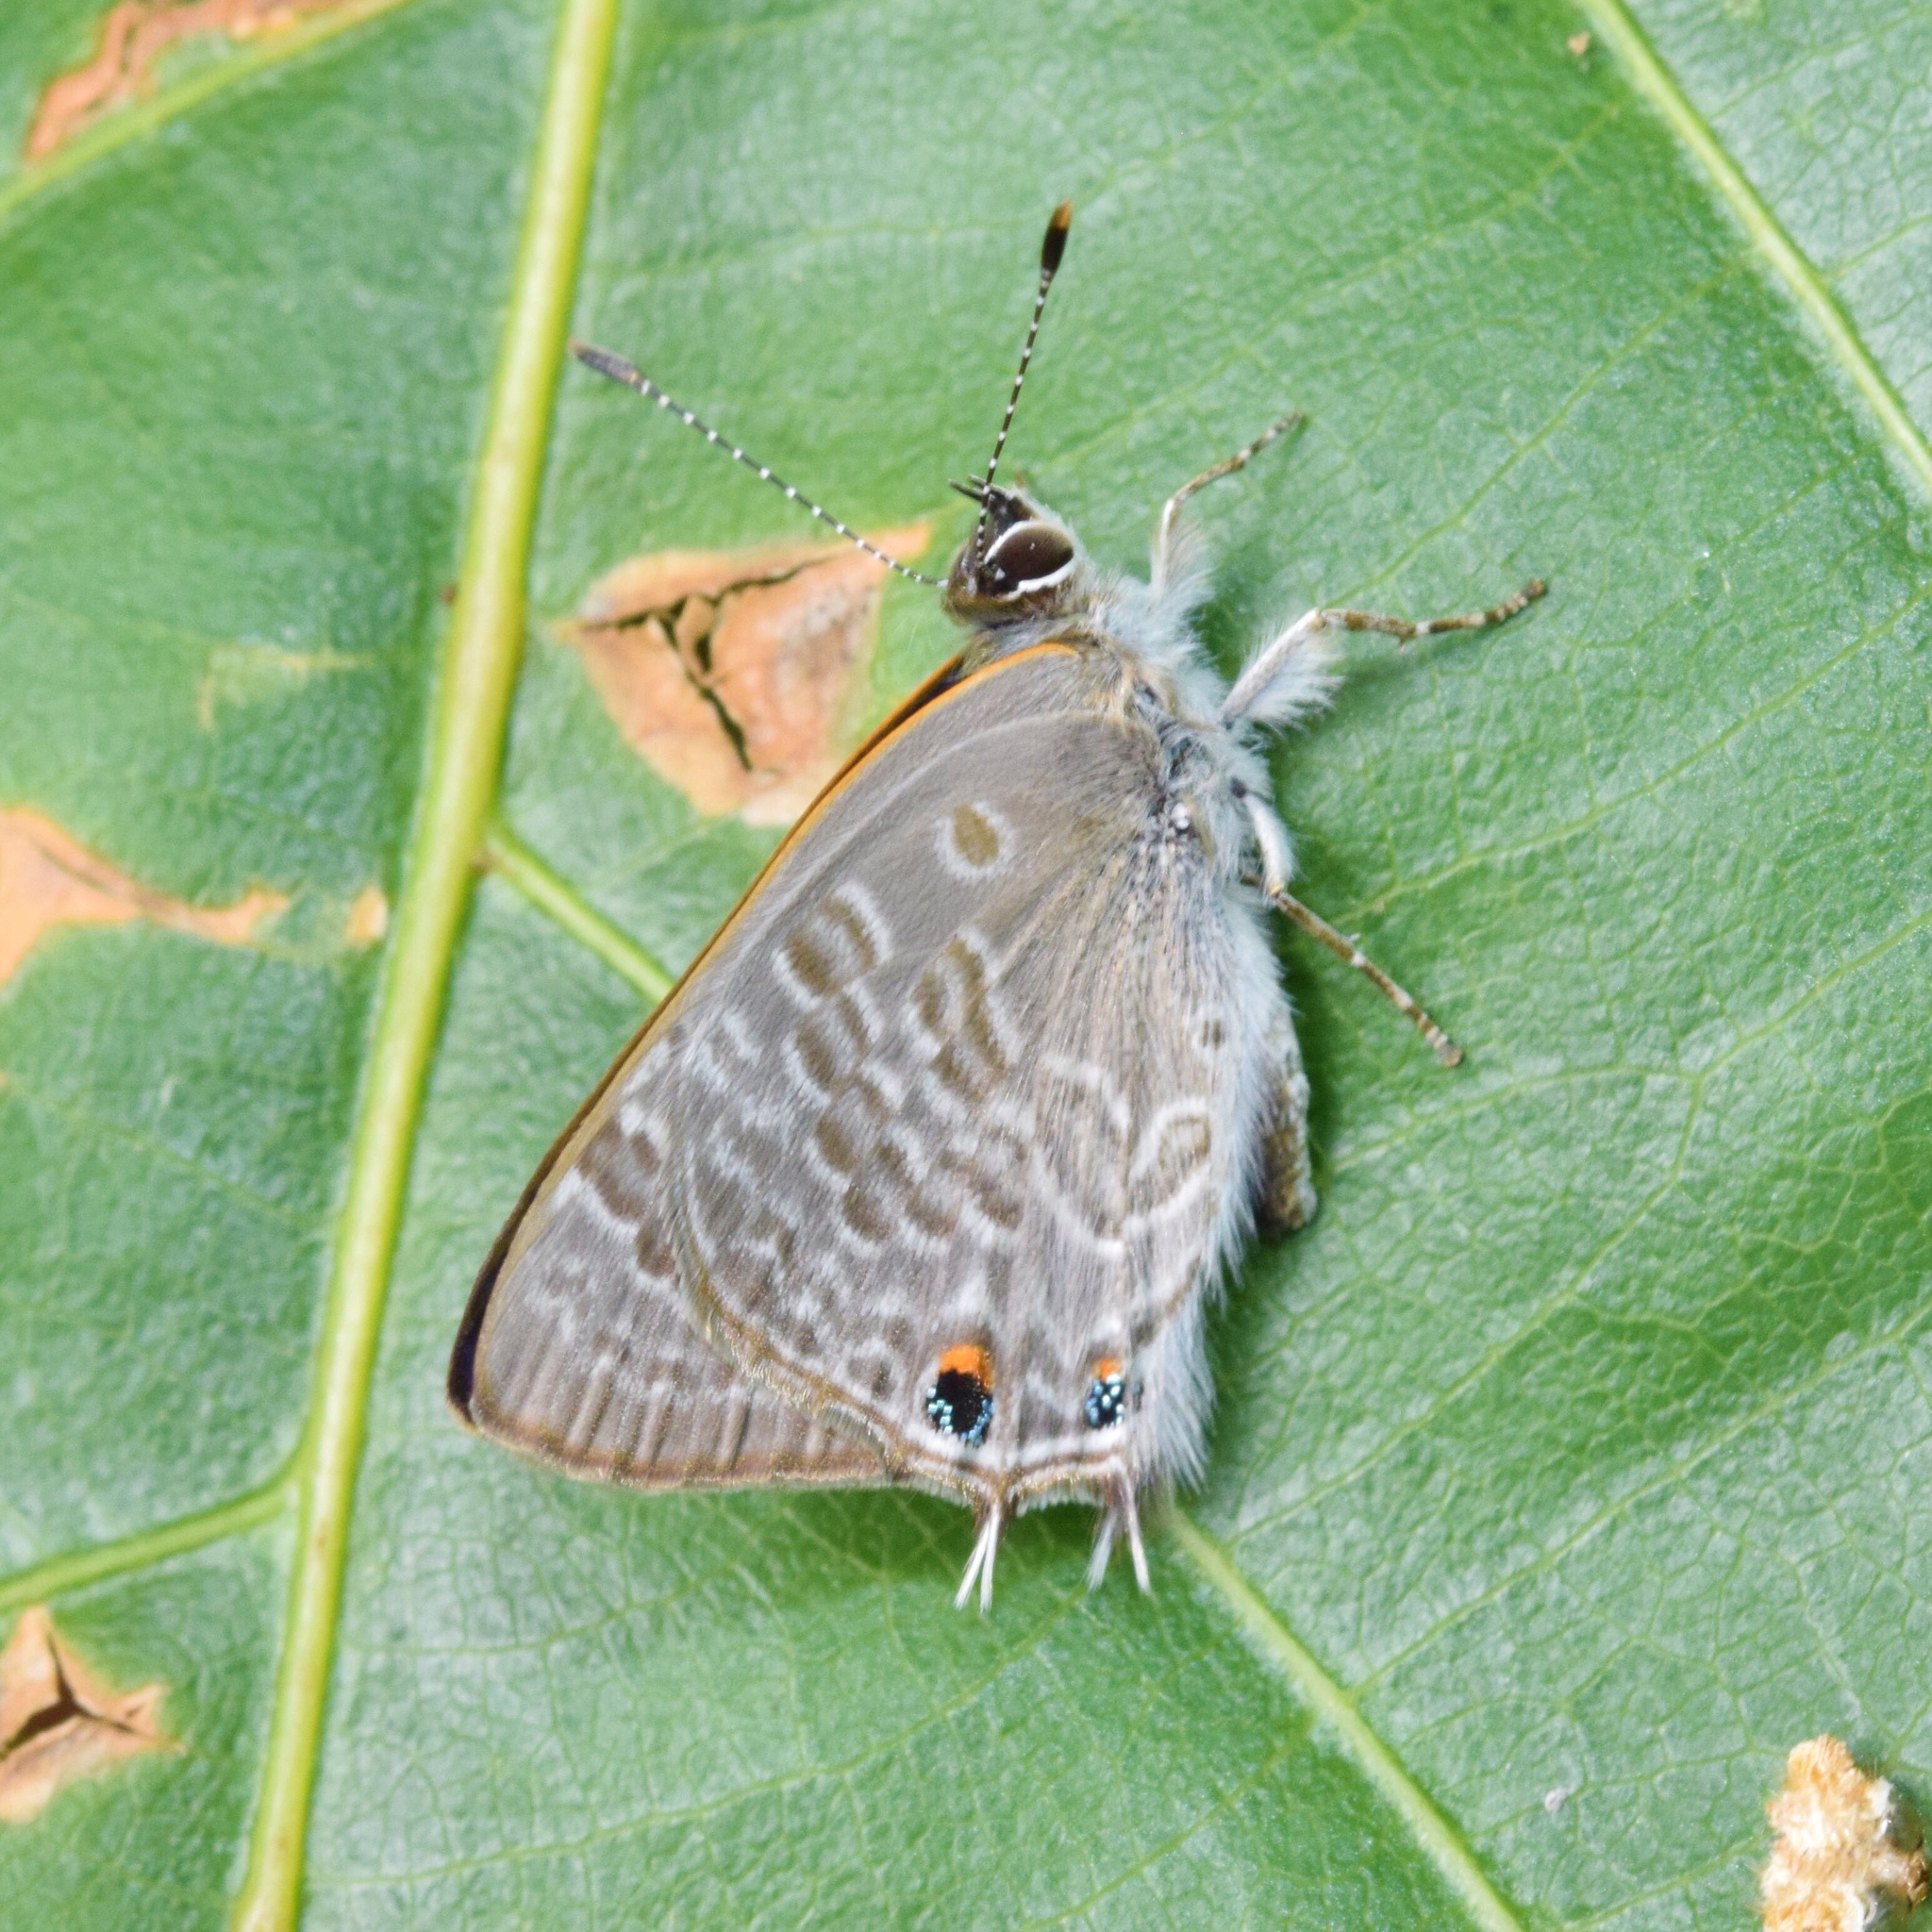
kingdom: Animalia
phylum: Arthropoda
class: Insecta
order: Lepidoptera
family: Lycaenidae
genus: Anthene
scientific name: Anthene definita
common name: Common ciliate blue
